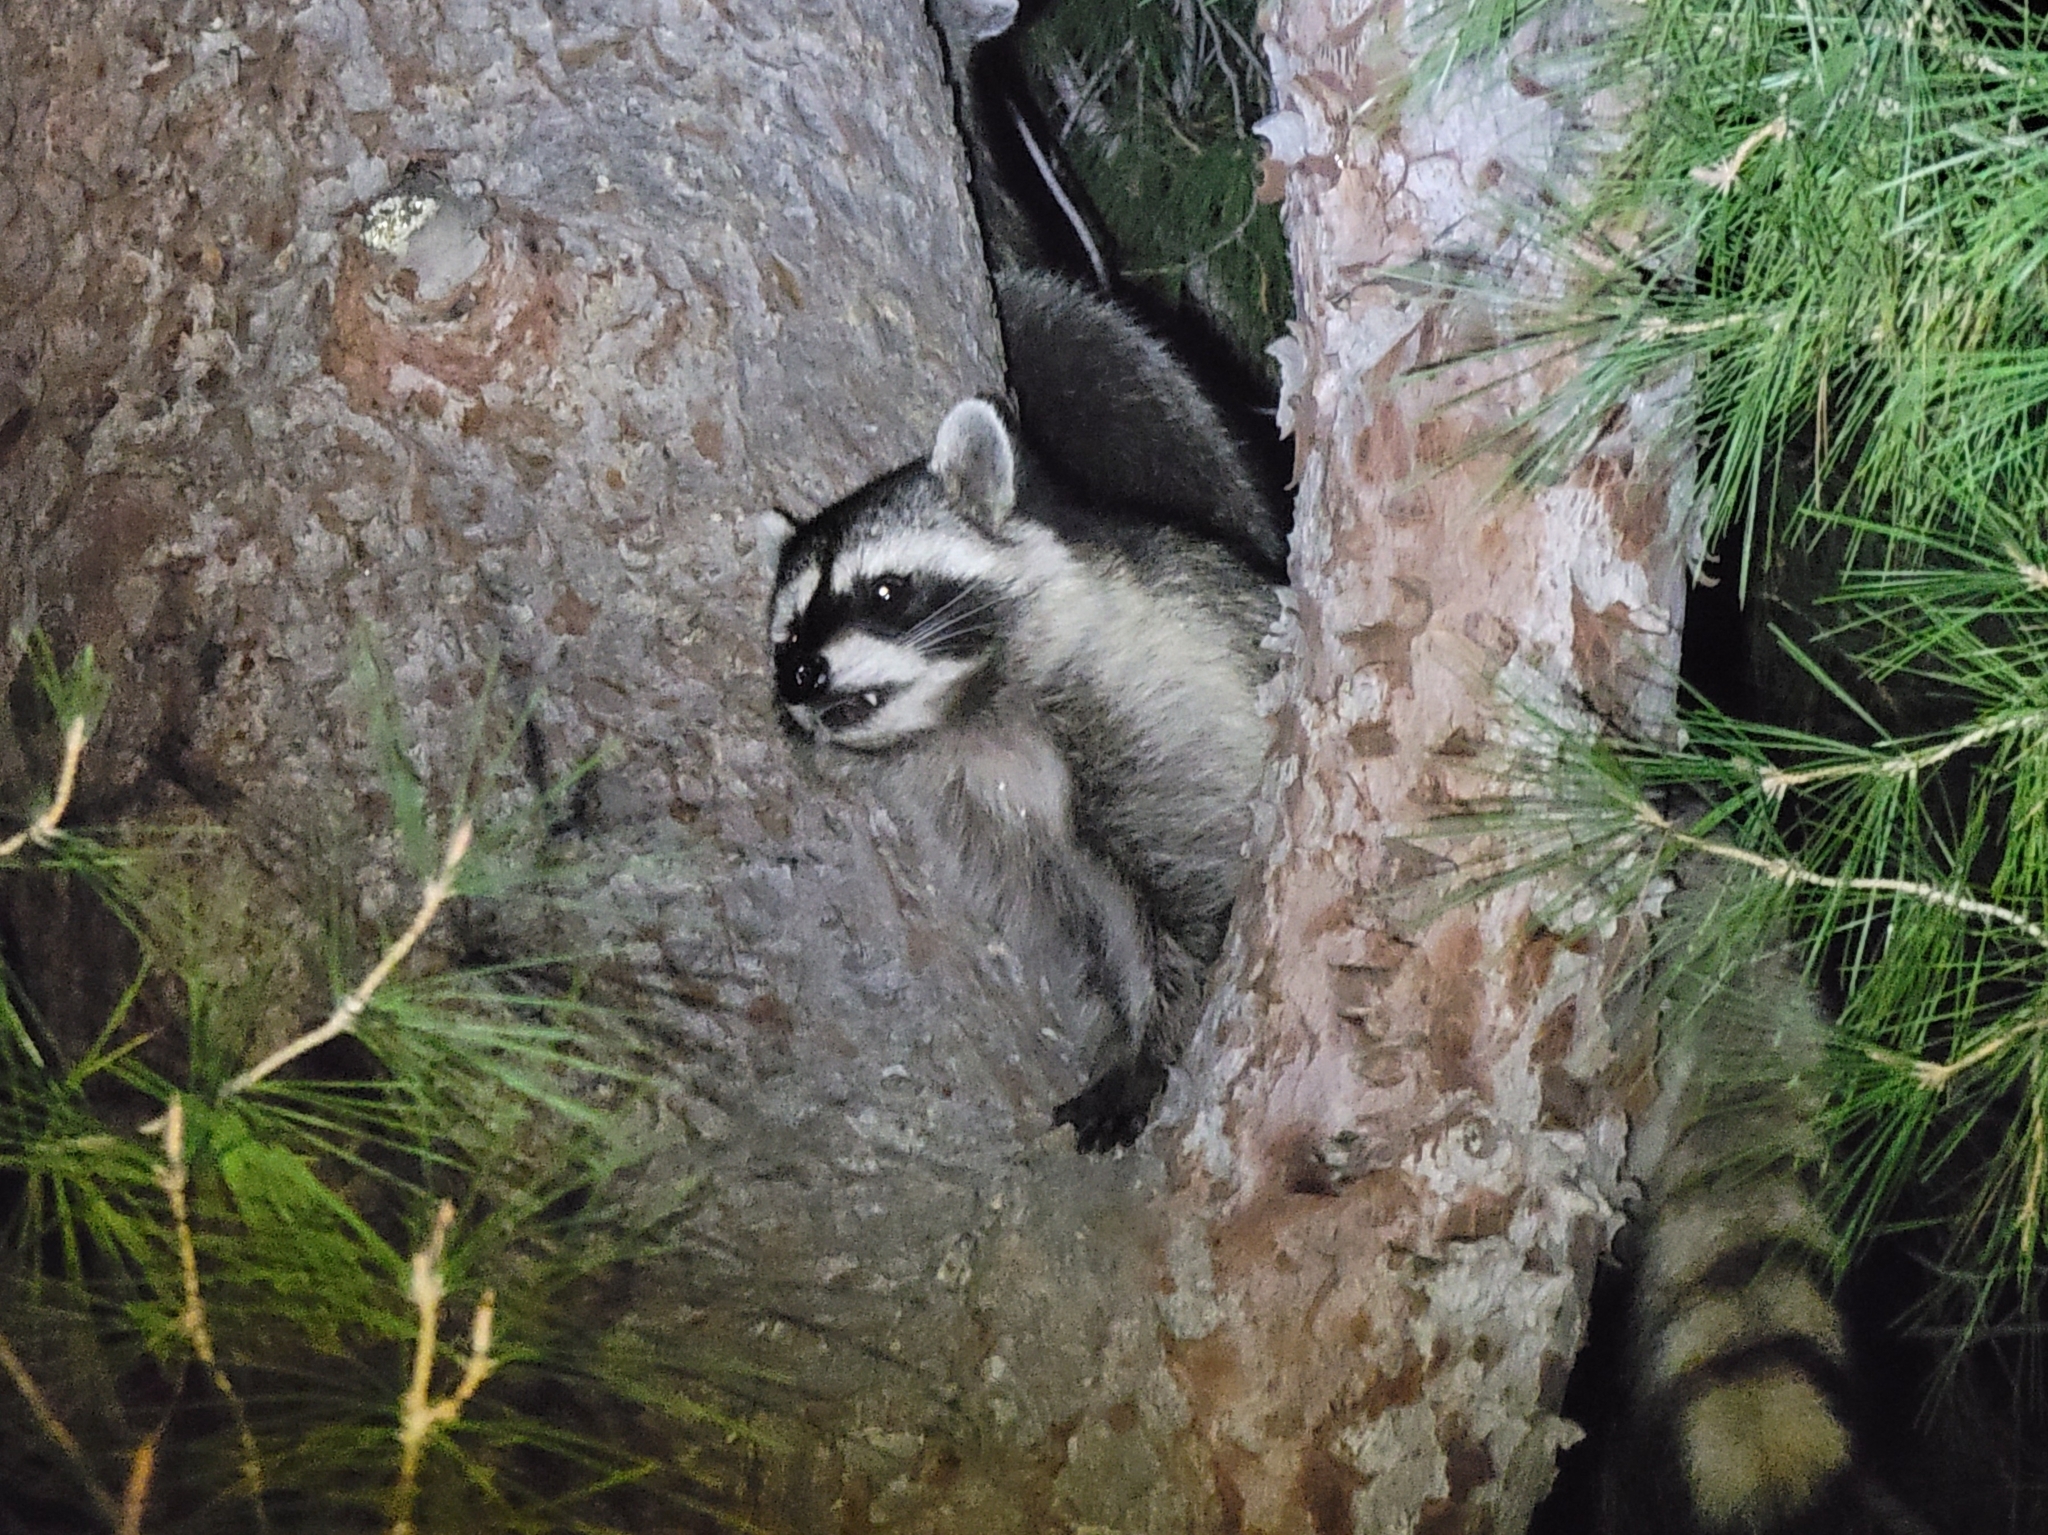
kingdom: Animalia
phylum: Chordata
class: Mammalia
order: Carnivora
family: Procyonidae
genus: Procyon
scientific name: Procyon lotor
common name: Raccoon
